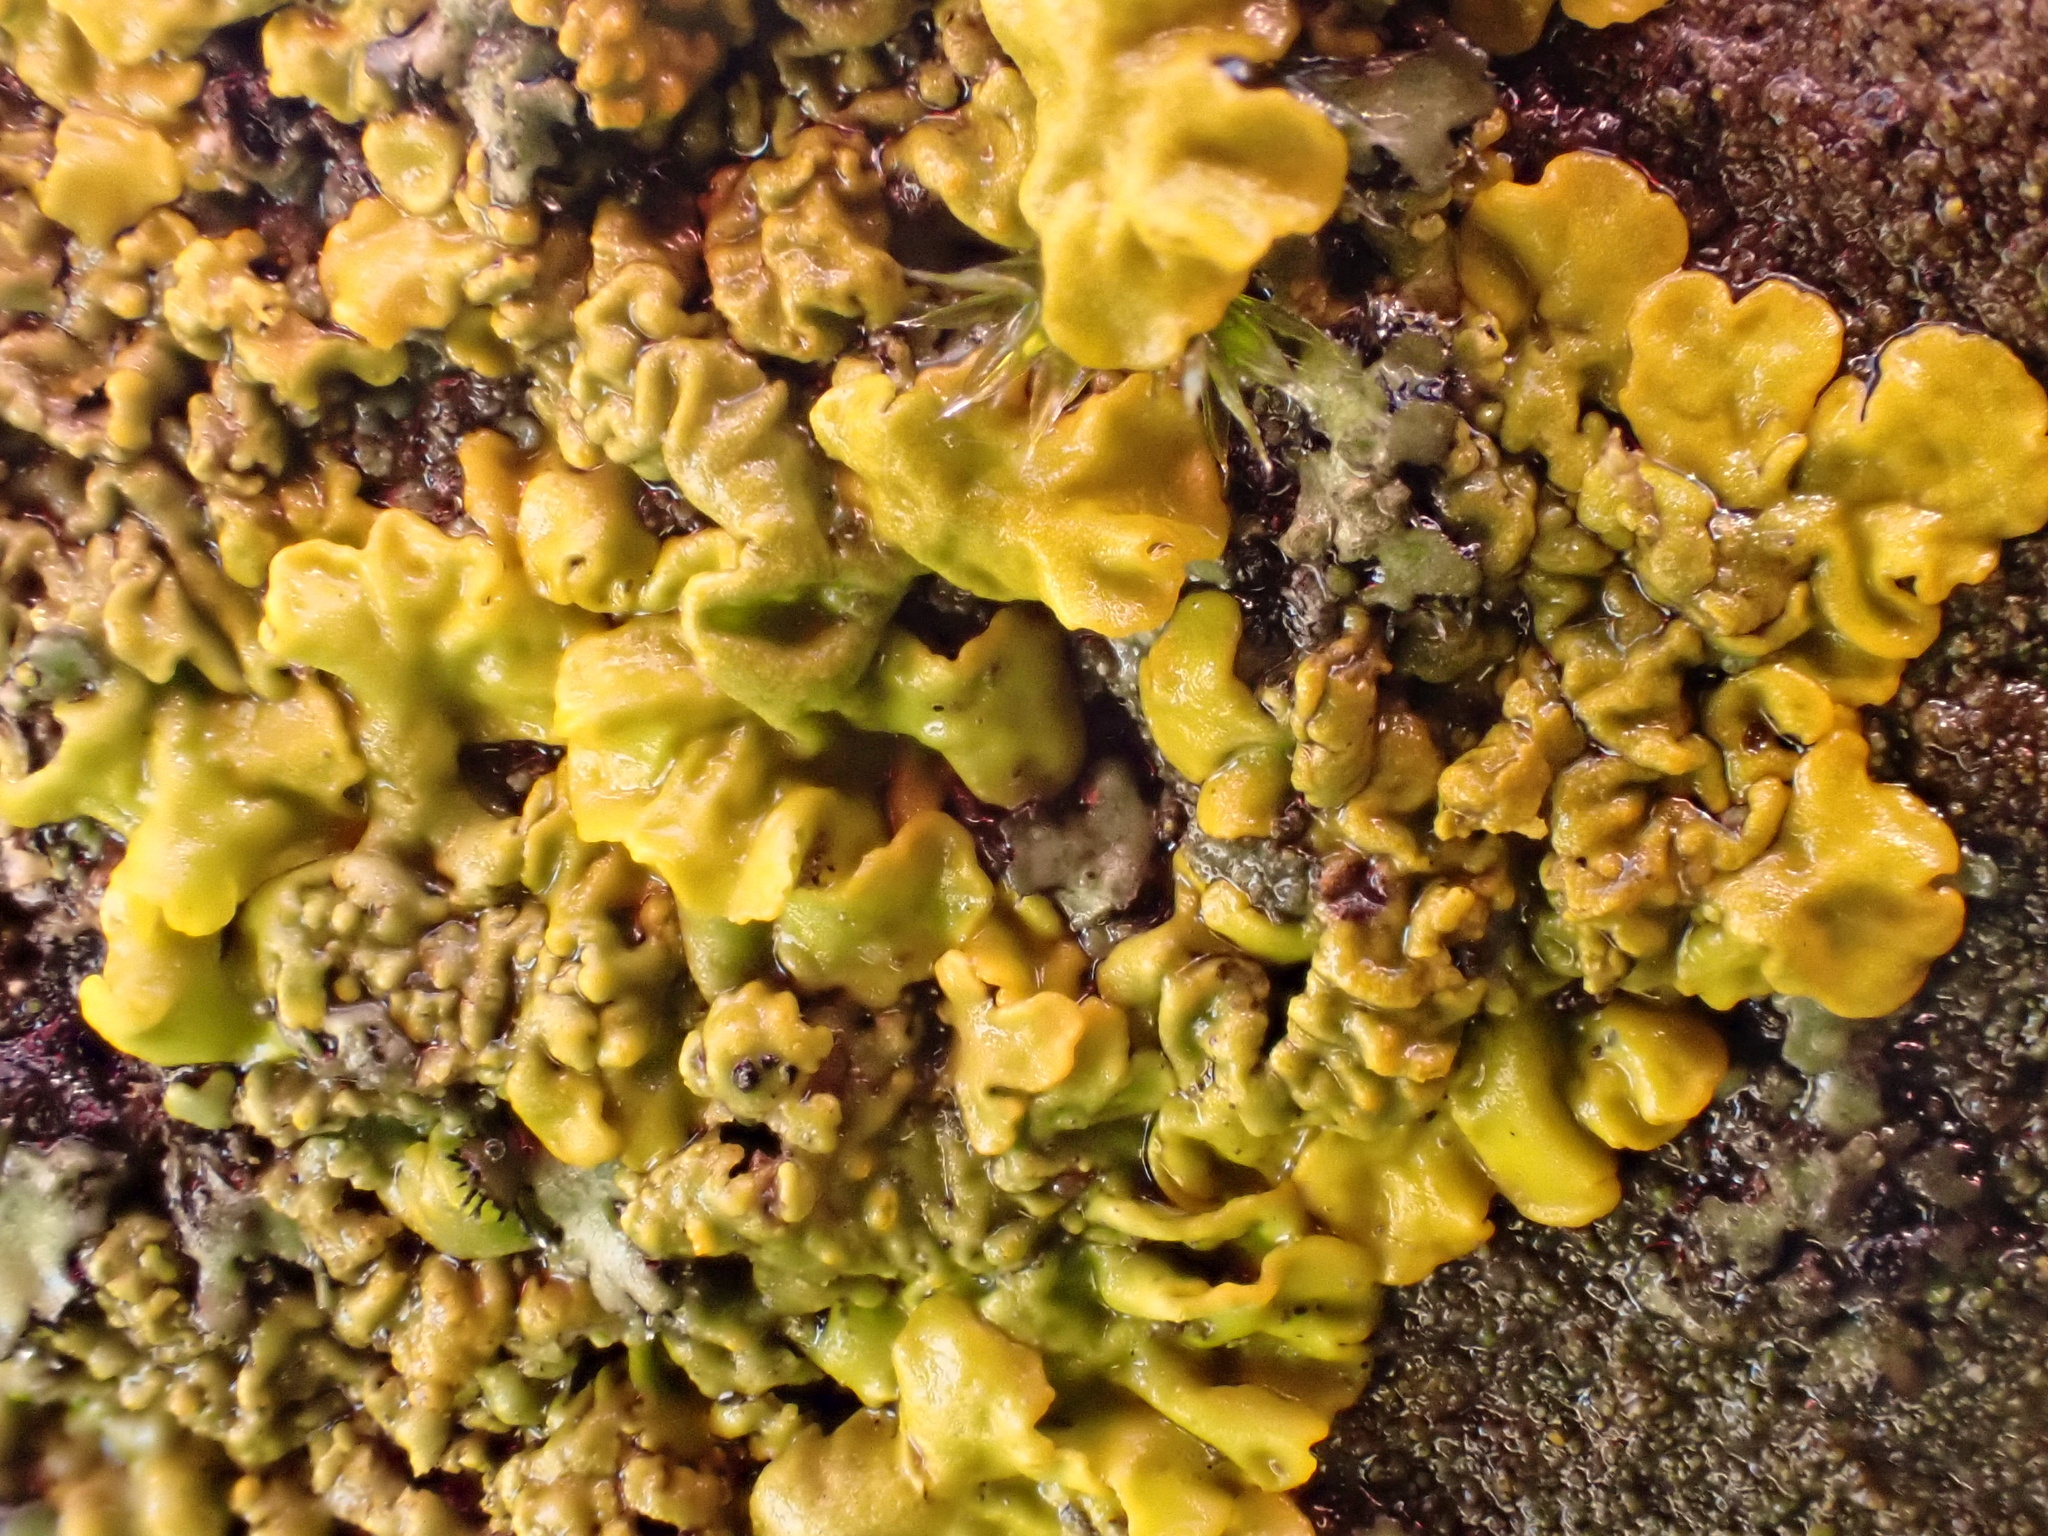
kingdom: Fungi
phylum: Ascomycota
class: Lecanoromycetes
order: Teloschistales
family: Teloschistaceae
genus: Xanthoria
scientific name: Xanthoria calcicola
